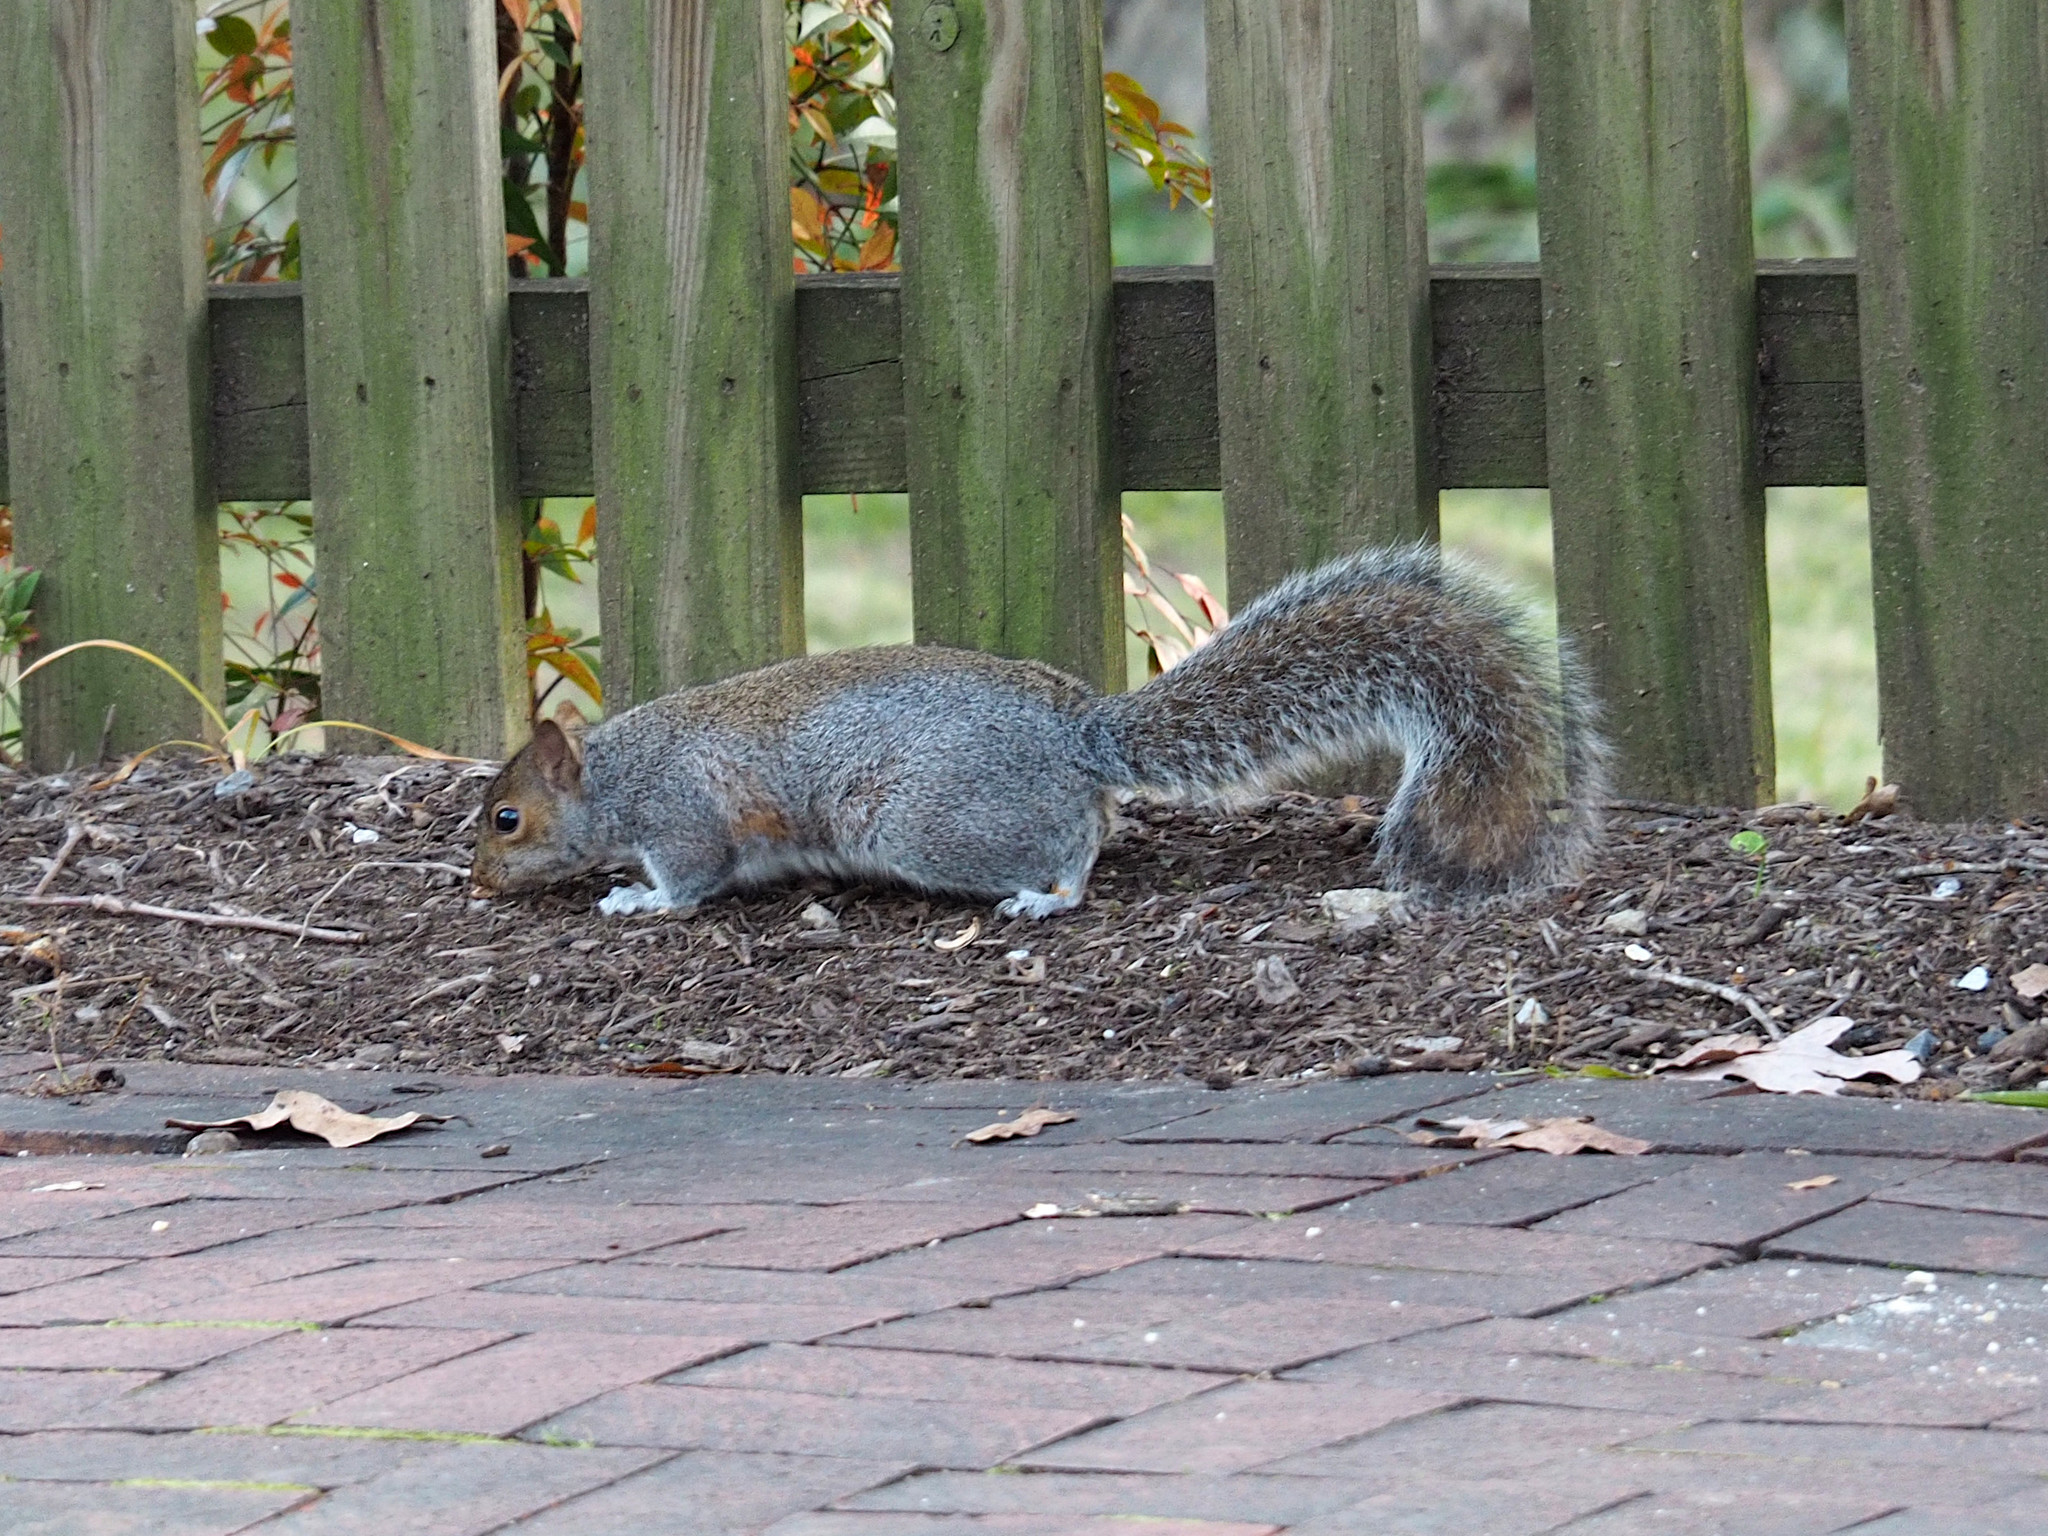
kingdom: Animalia
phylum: Chordata
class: Mammalia
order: Rodentia
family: Sciuridae
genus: Sciurus
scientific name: Sciurus carolinensis
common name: Eastern gray squirrel
